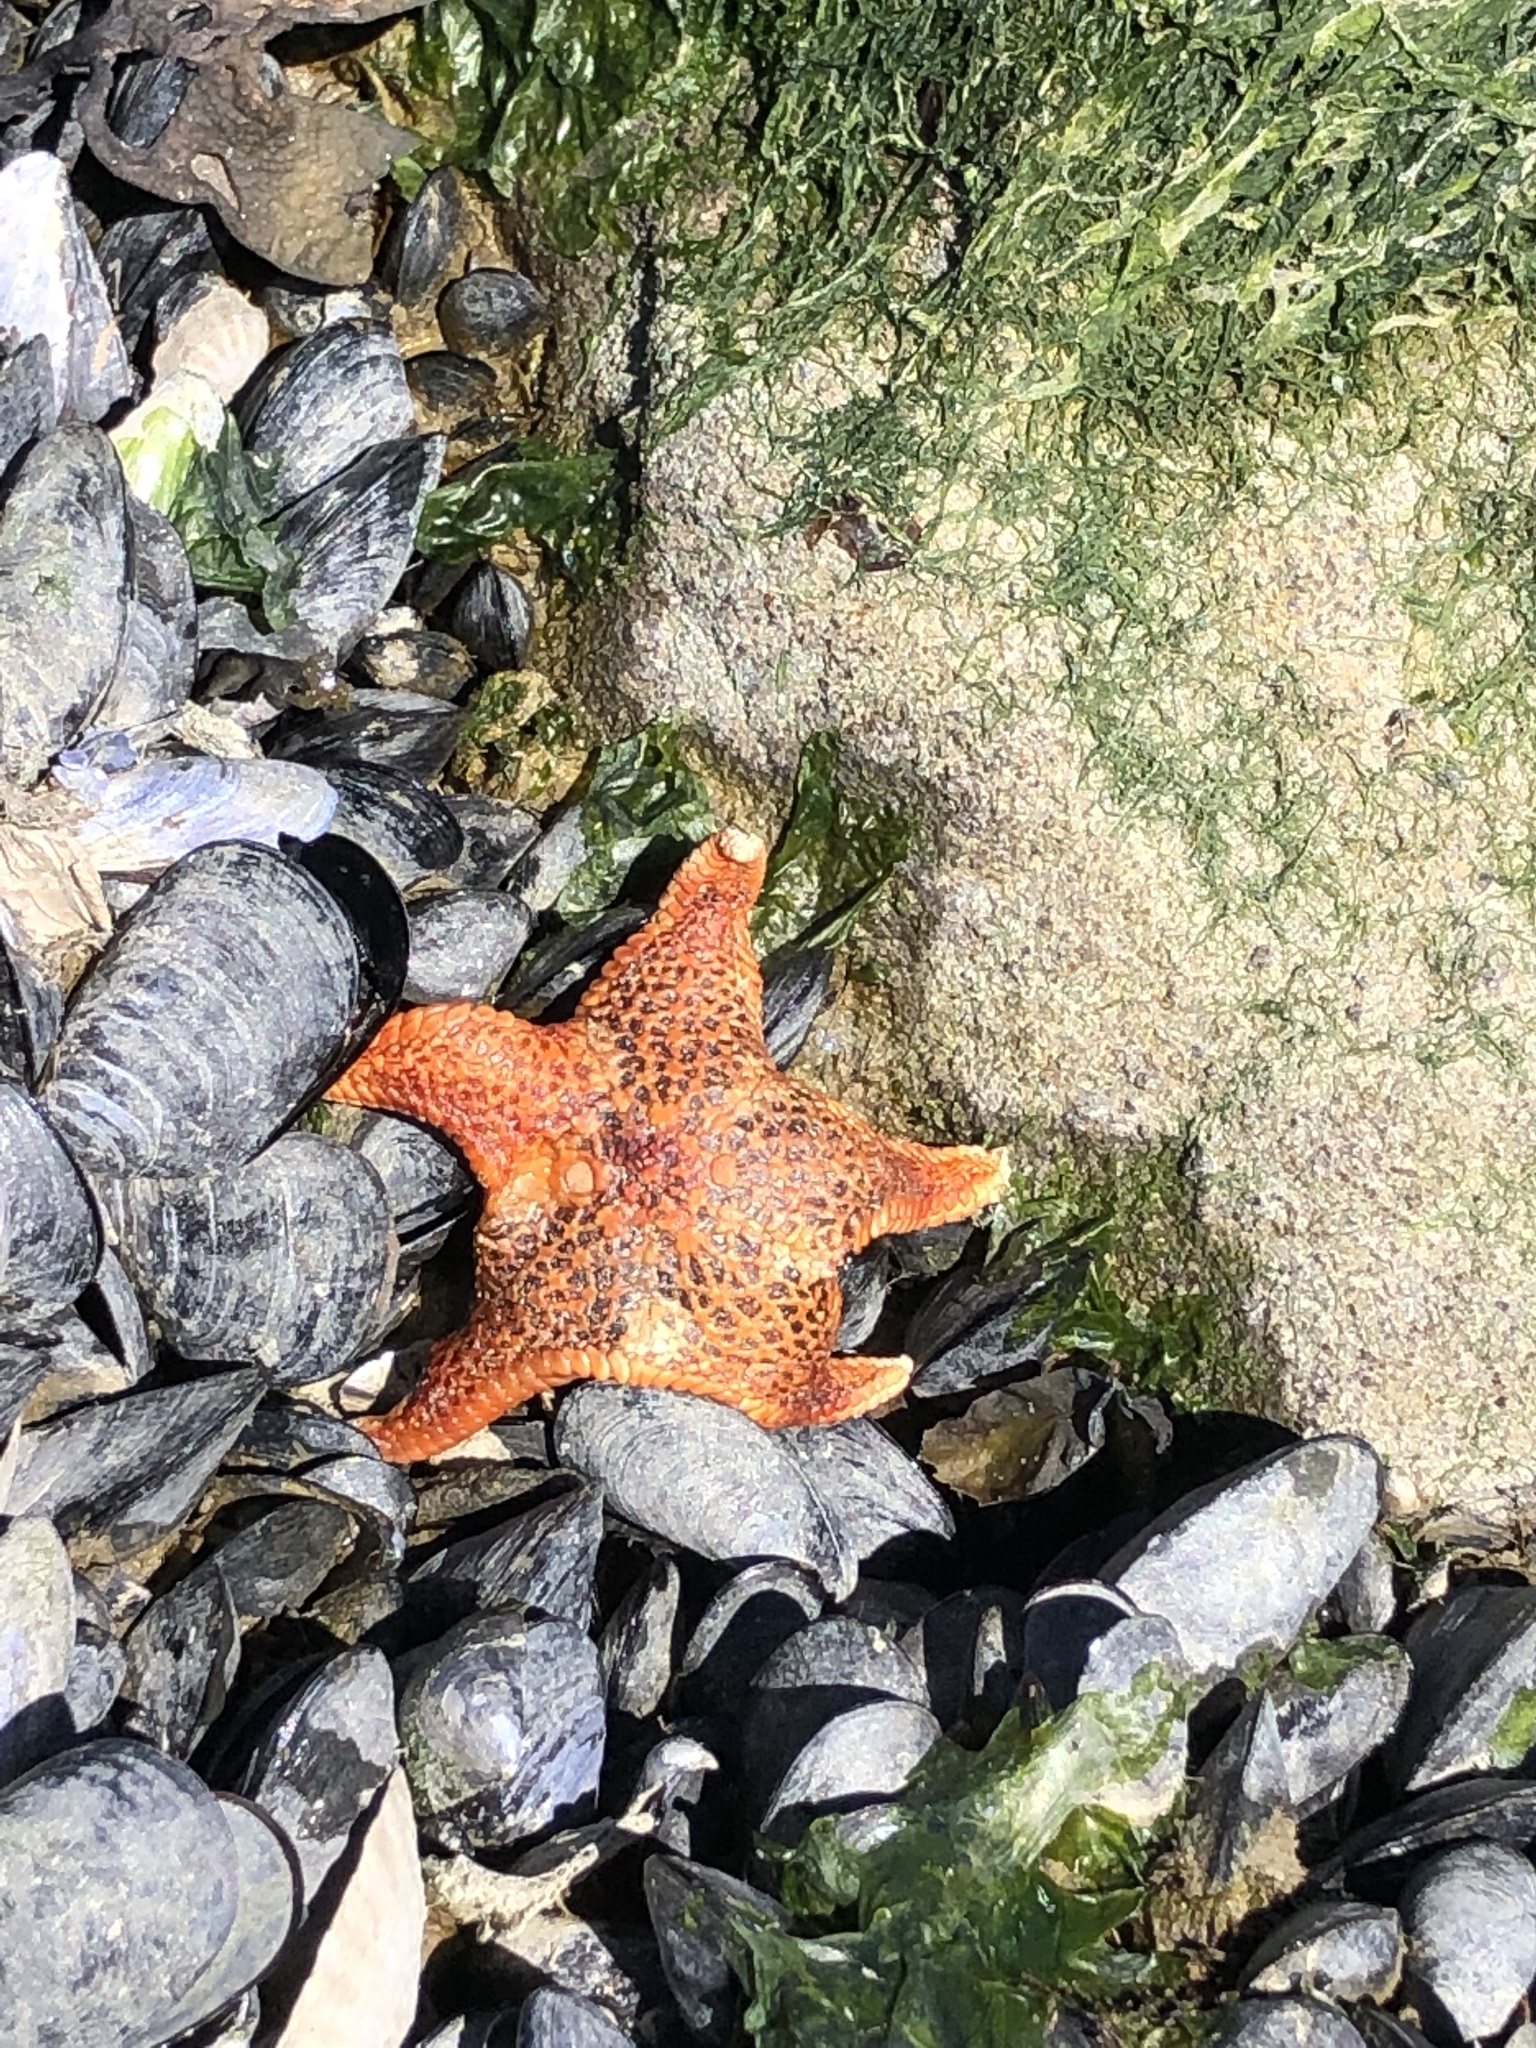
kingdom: Animalia
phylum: Echinodermata
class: Asteroidea
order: Valvatida
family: Asteropseidae
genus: Dermasterias
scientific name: Dermasterias imbricata
